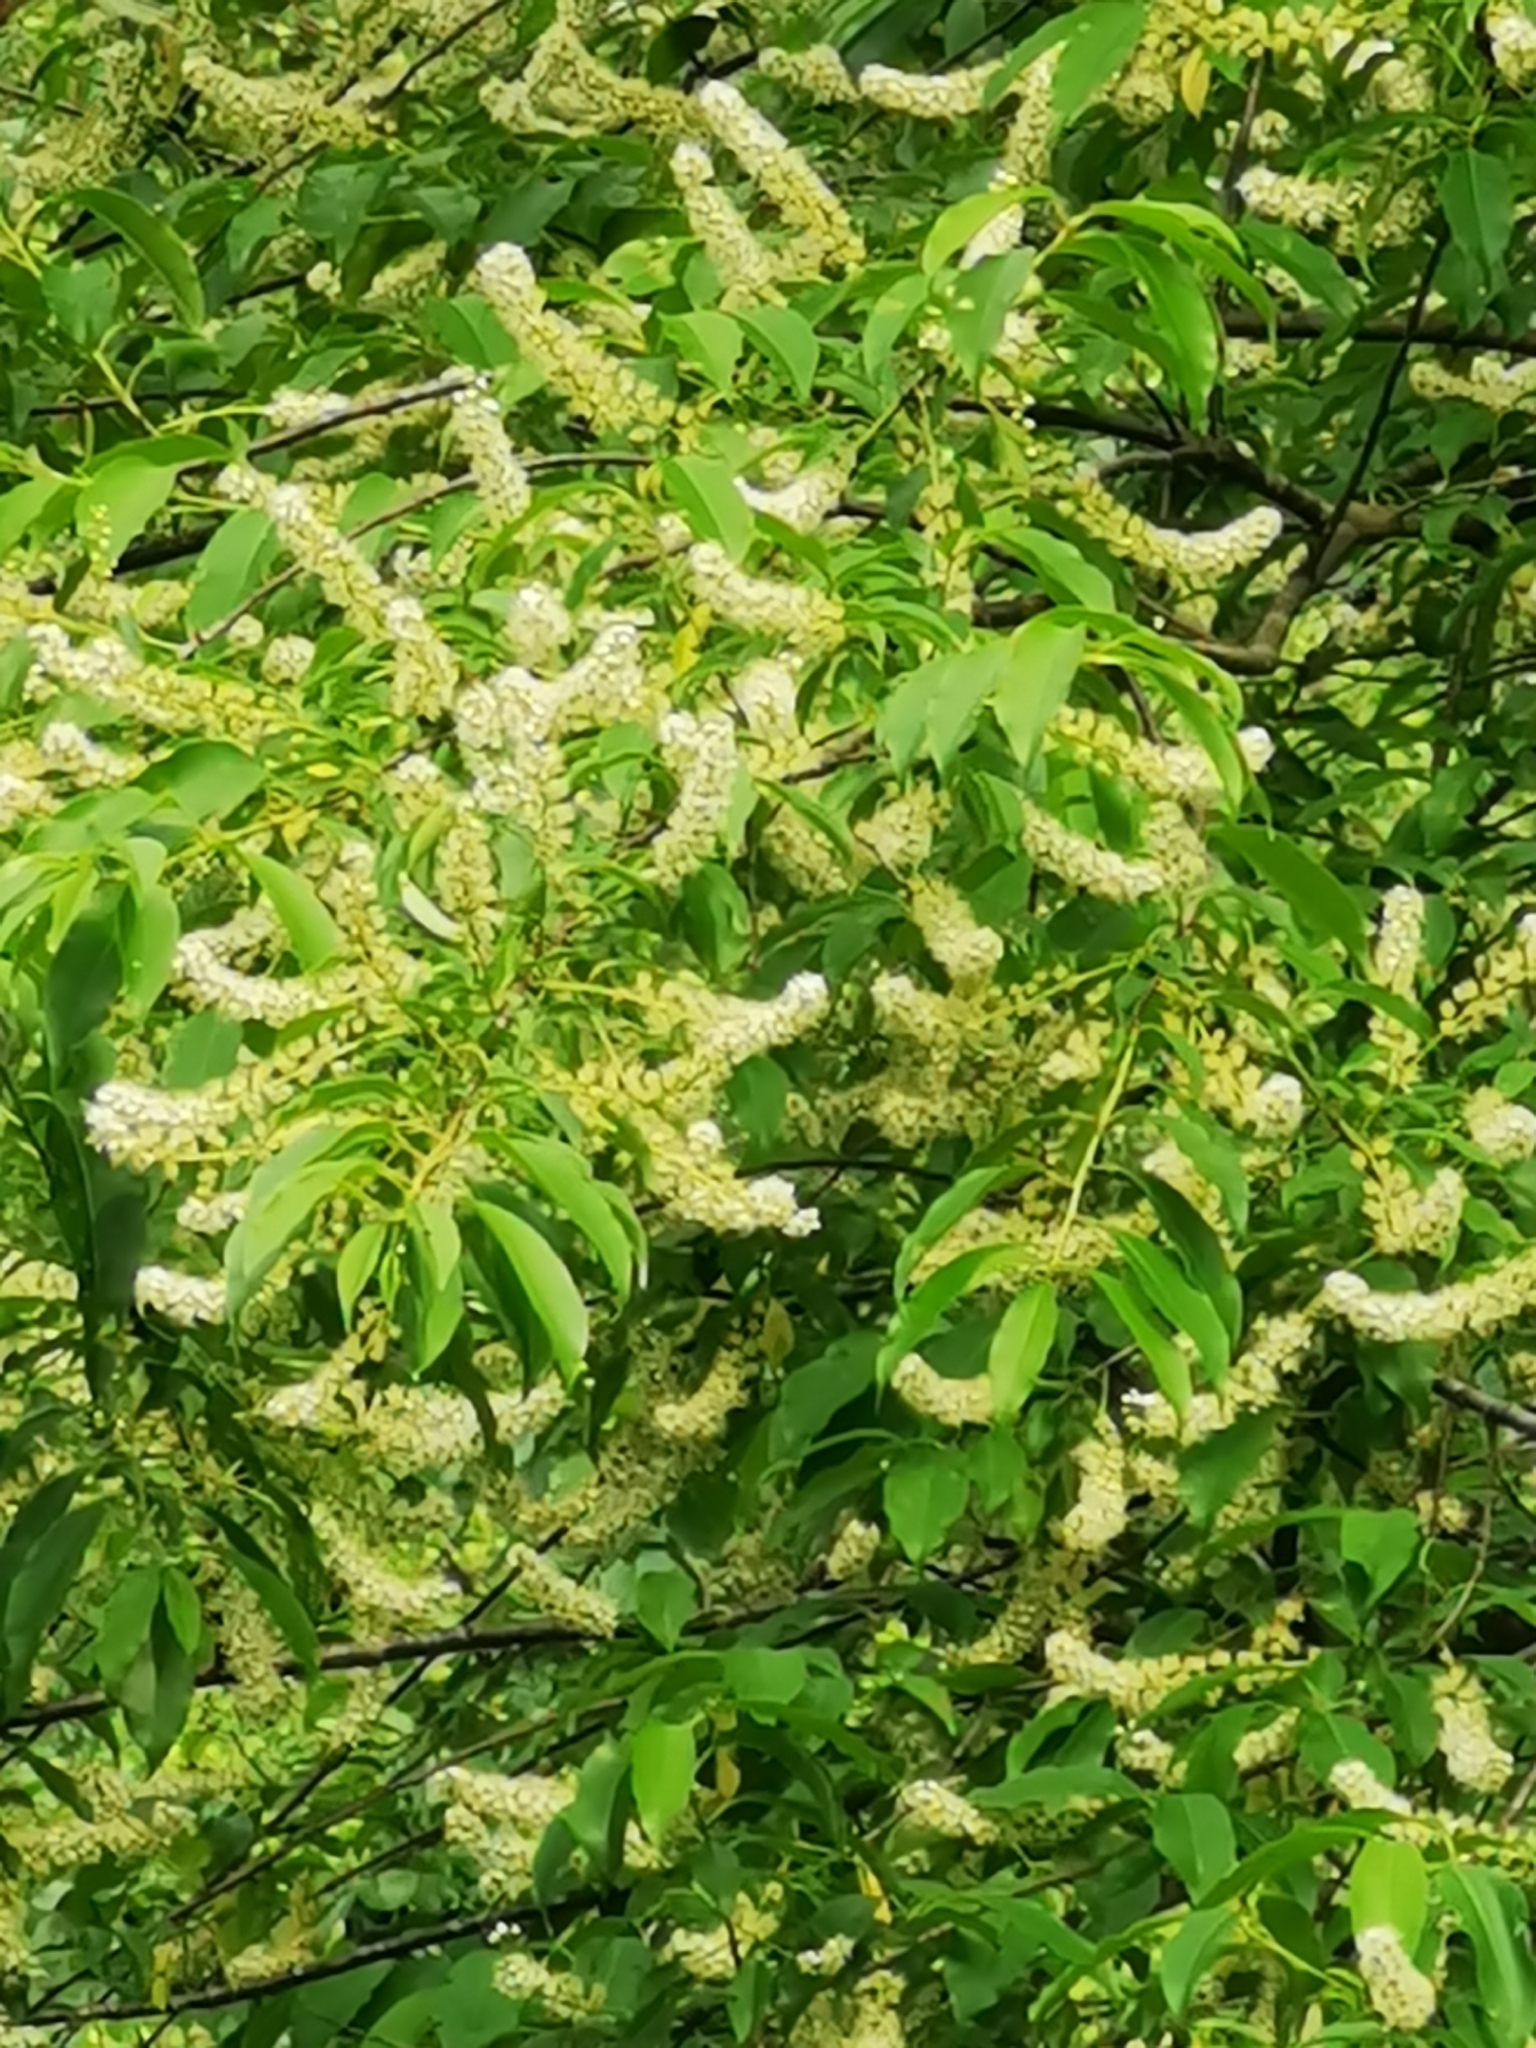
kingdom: Plantae
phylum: Tracheophyta
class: Magnoliopsida
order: Rosales
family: Rosaceae
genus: Prunus
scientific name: Prunus serotina
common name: Black cherry
